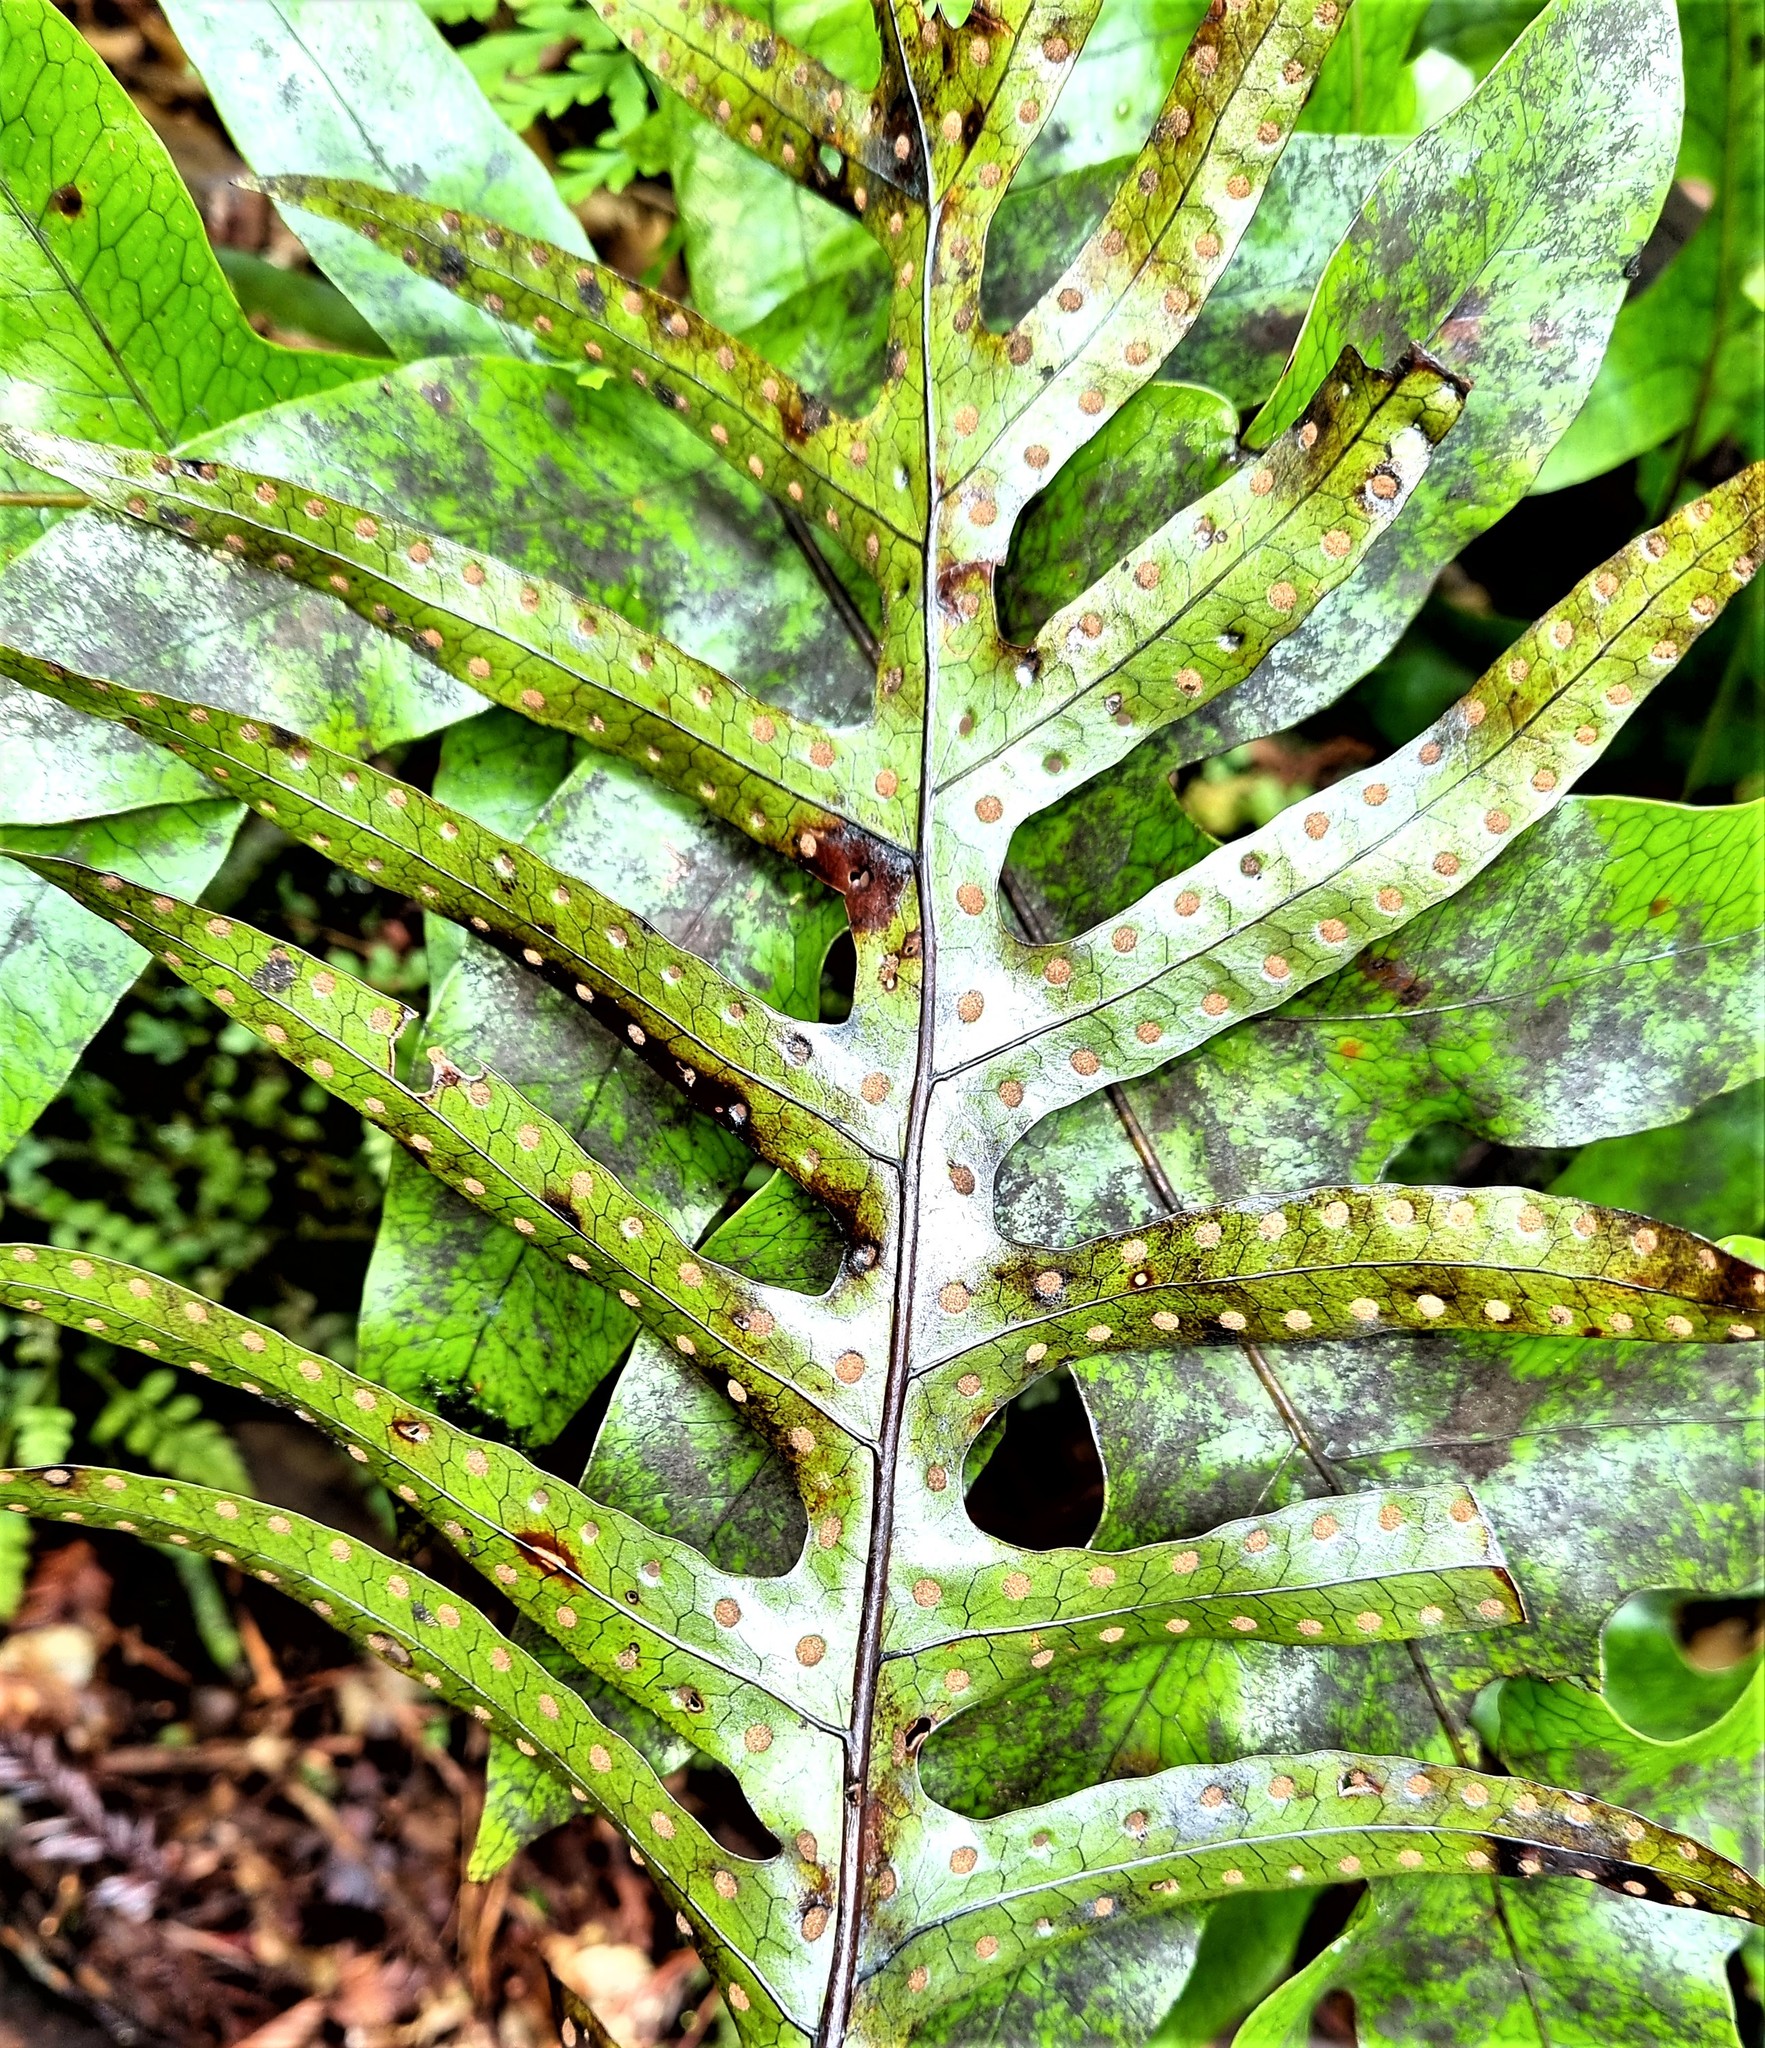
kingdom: Plantae
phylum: Tracheophyta
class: Polypodiopsida
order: Polypodiales
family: Polypodiaceae
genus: Lecanopteris
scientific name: Lecanopteris pustulata
